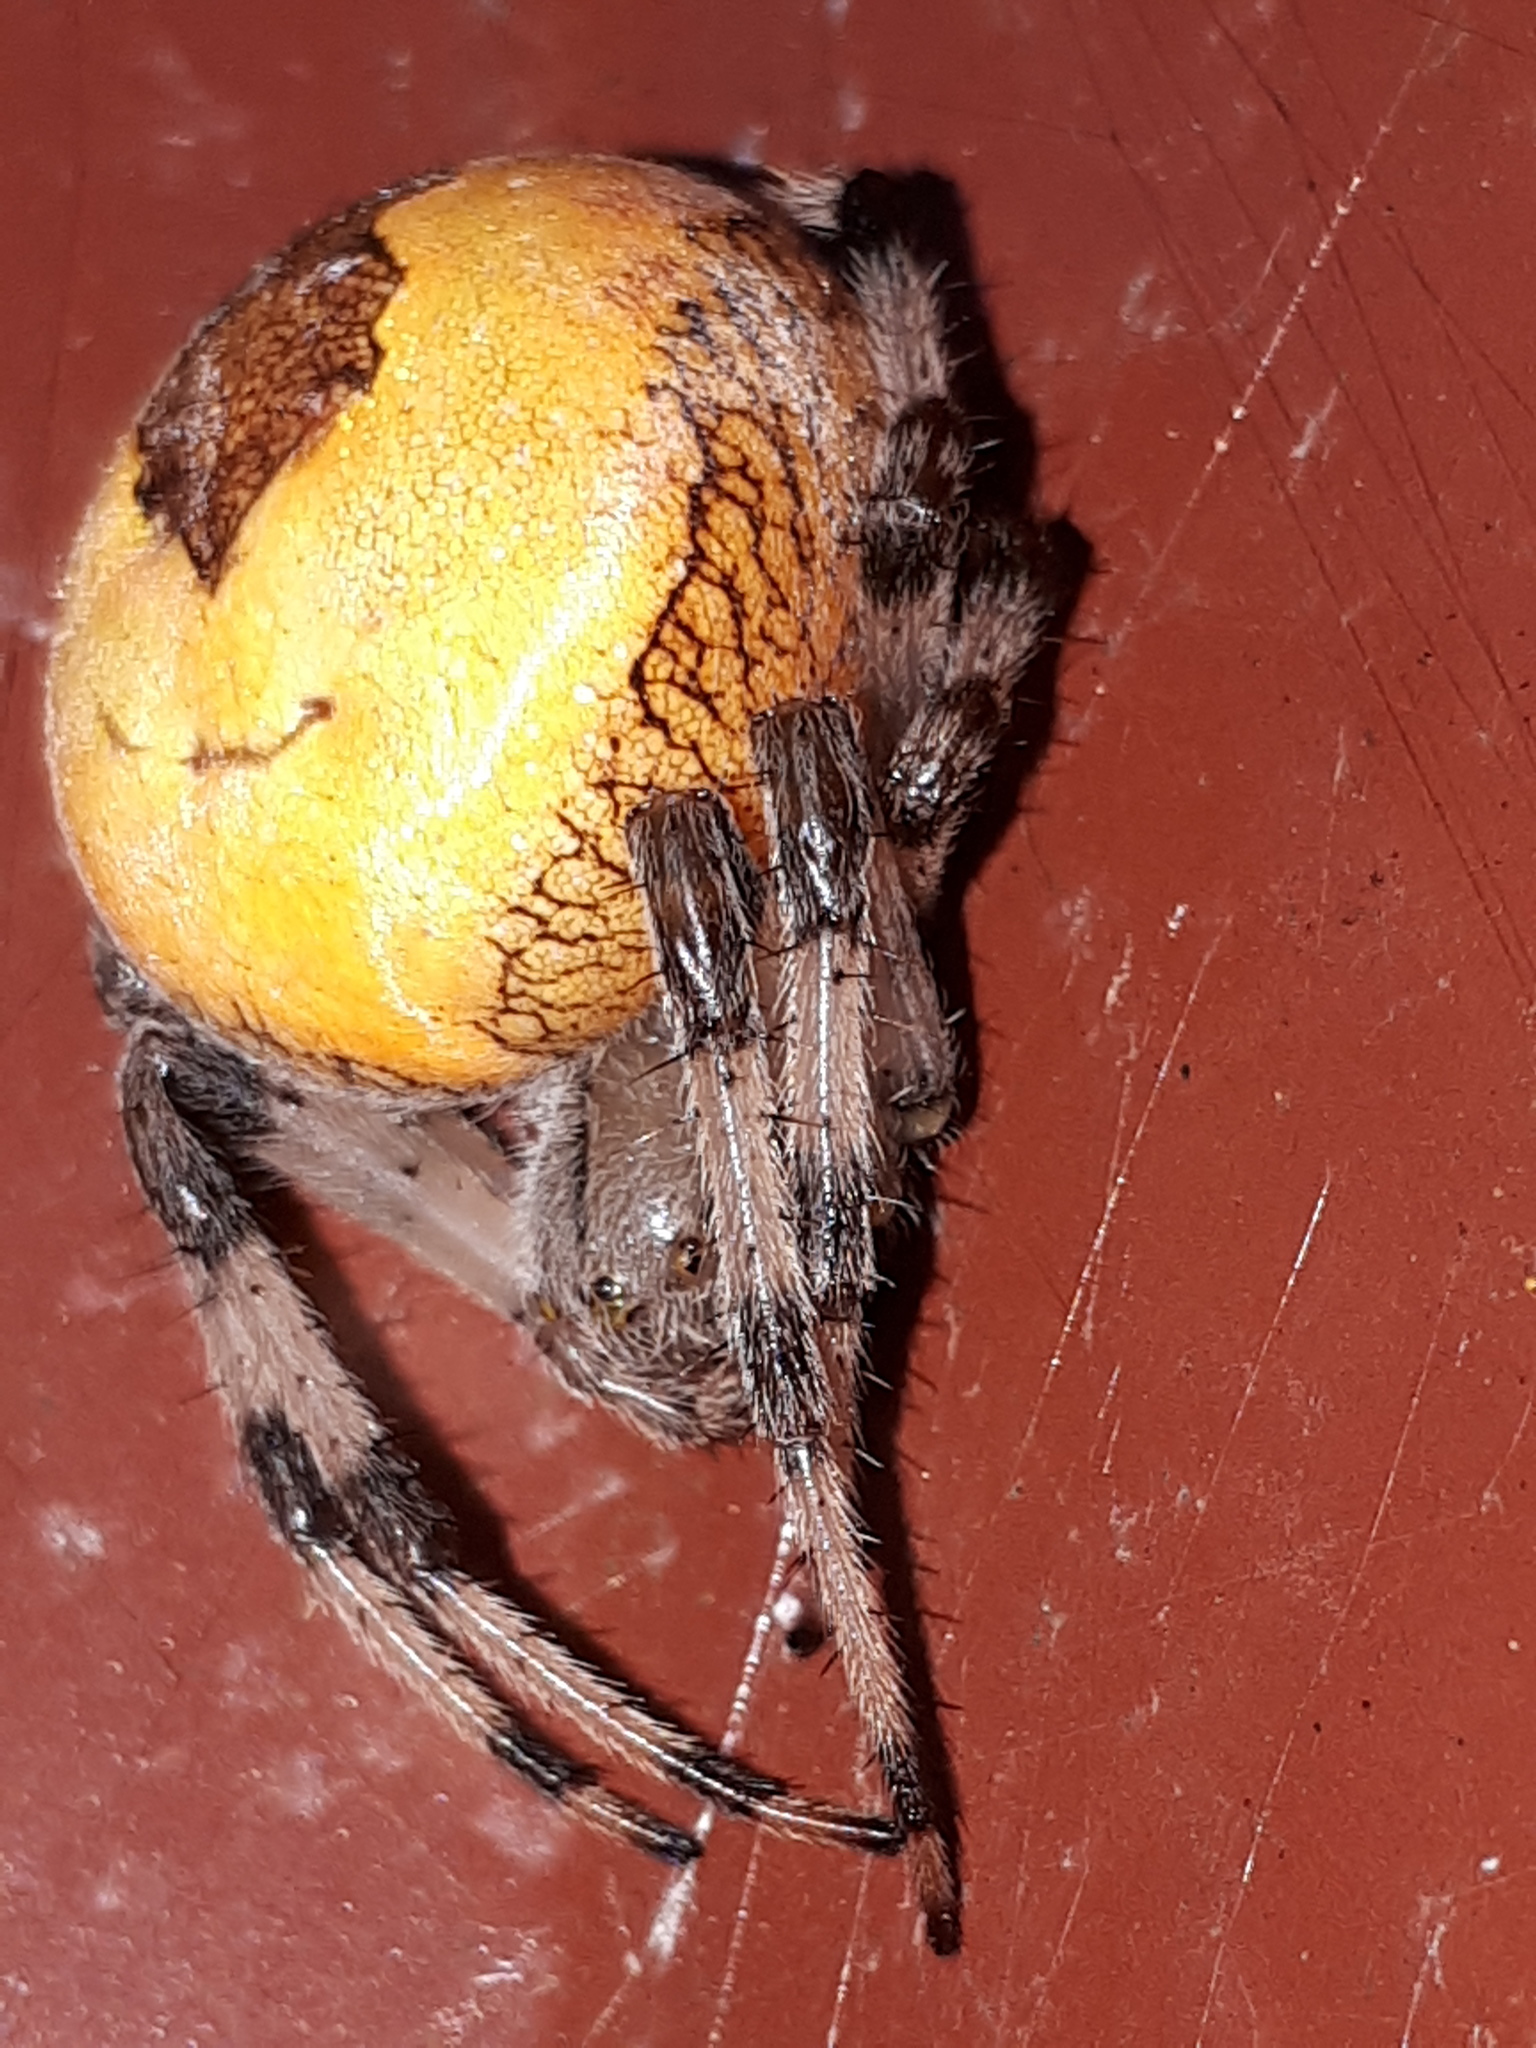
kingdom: Animalia
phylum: Arthropoda
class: Arachnida
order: Araneae
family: Araneidae
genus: Araneus
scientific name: Araneus marmoreus
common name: Marbled orbweaver
